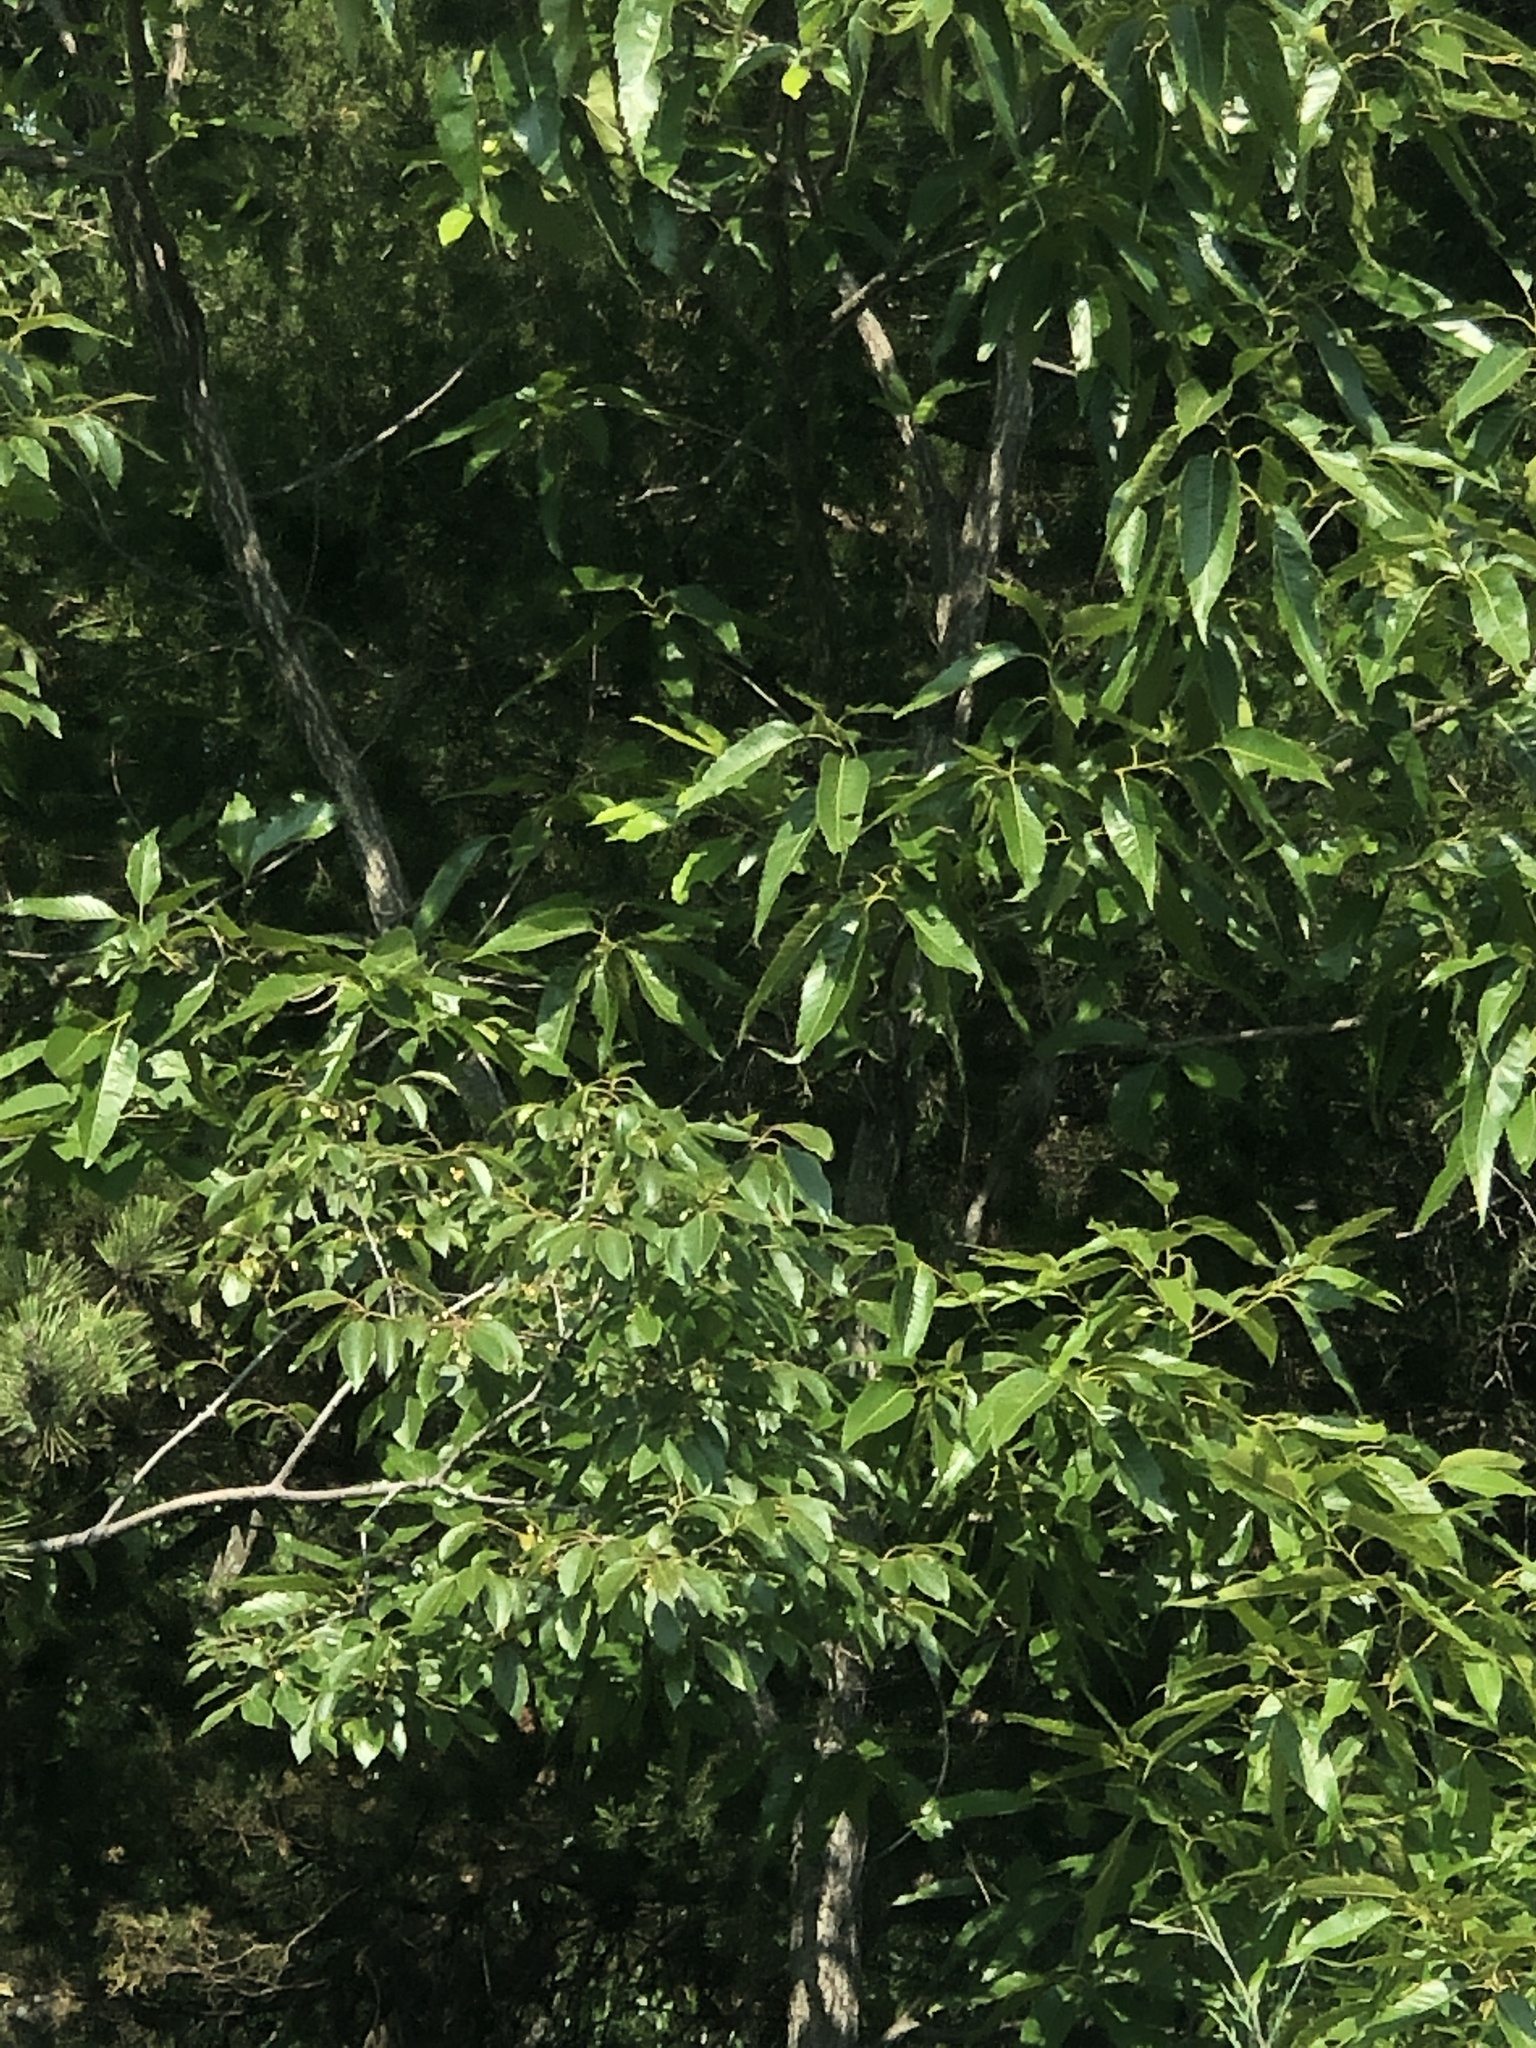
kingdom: Plantae
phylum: Tracheophyta
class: Magnoliopsida
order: Fagales
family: Fagaceae
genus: Quercus
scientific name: Quercus acutissima
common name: Sawtooth oak
